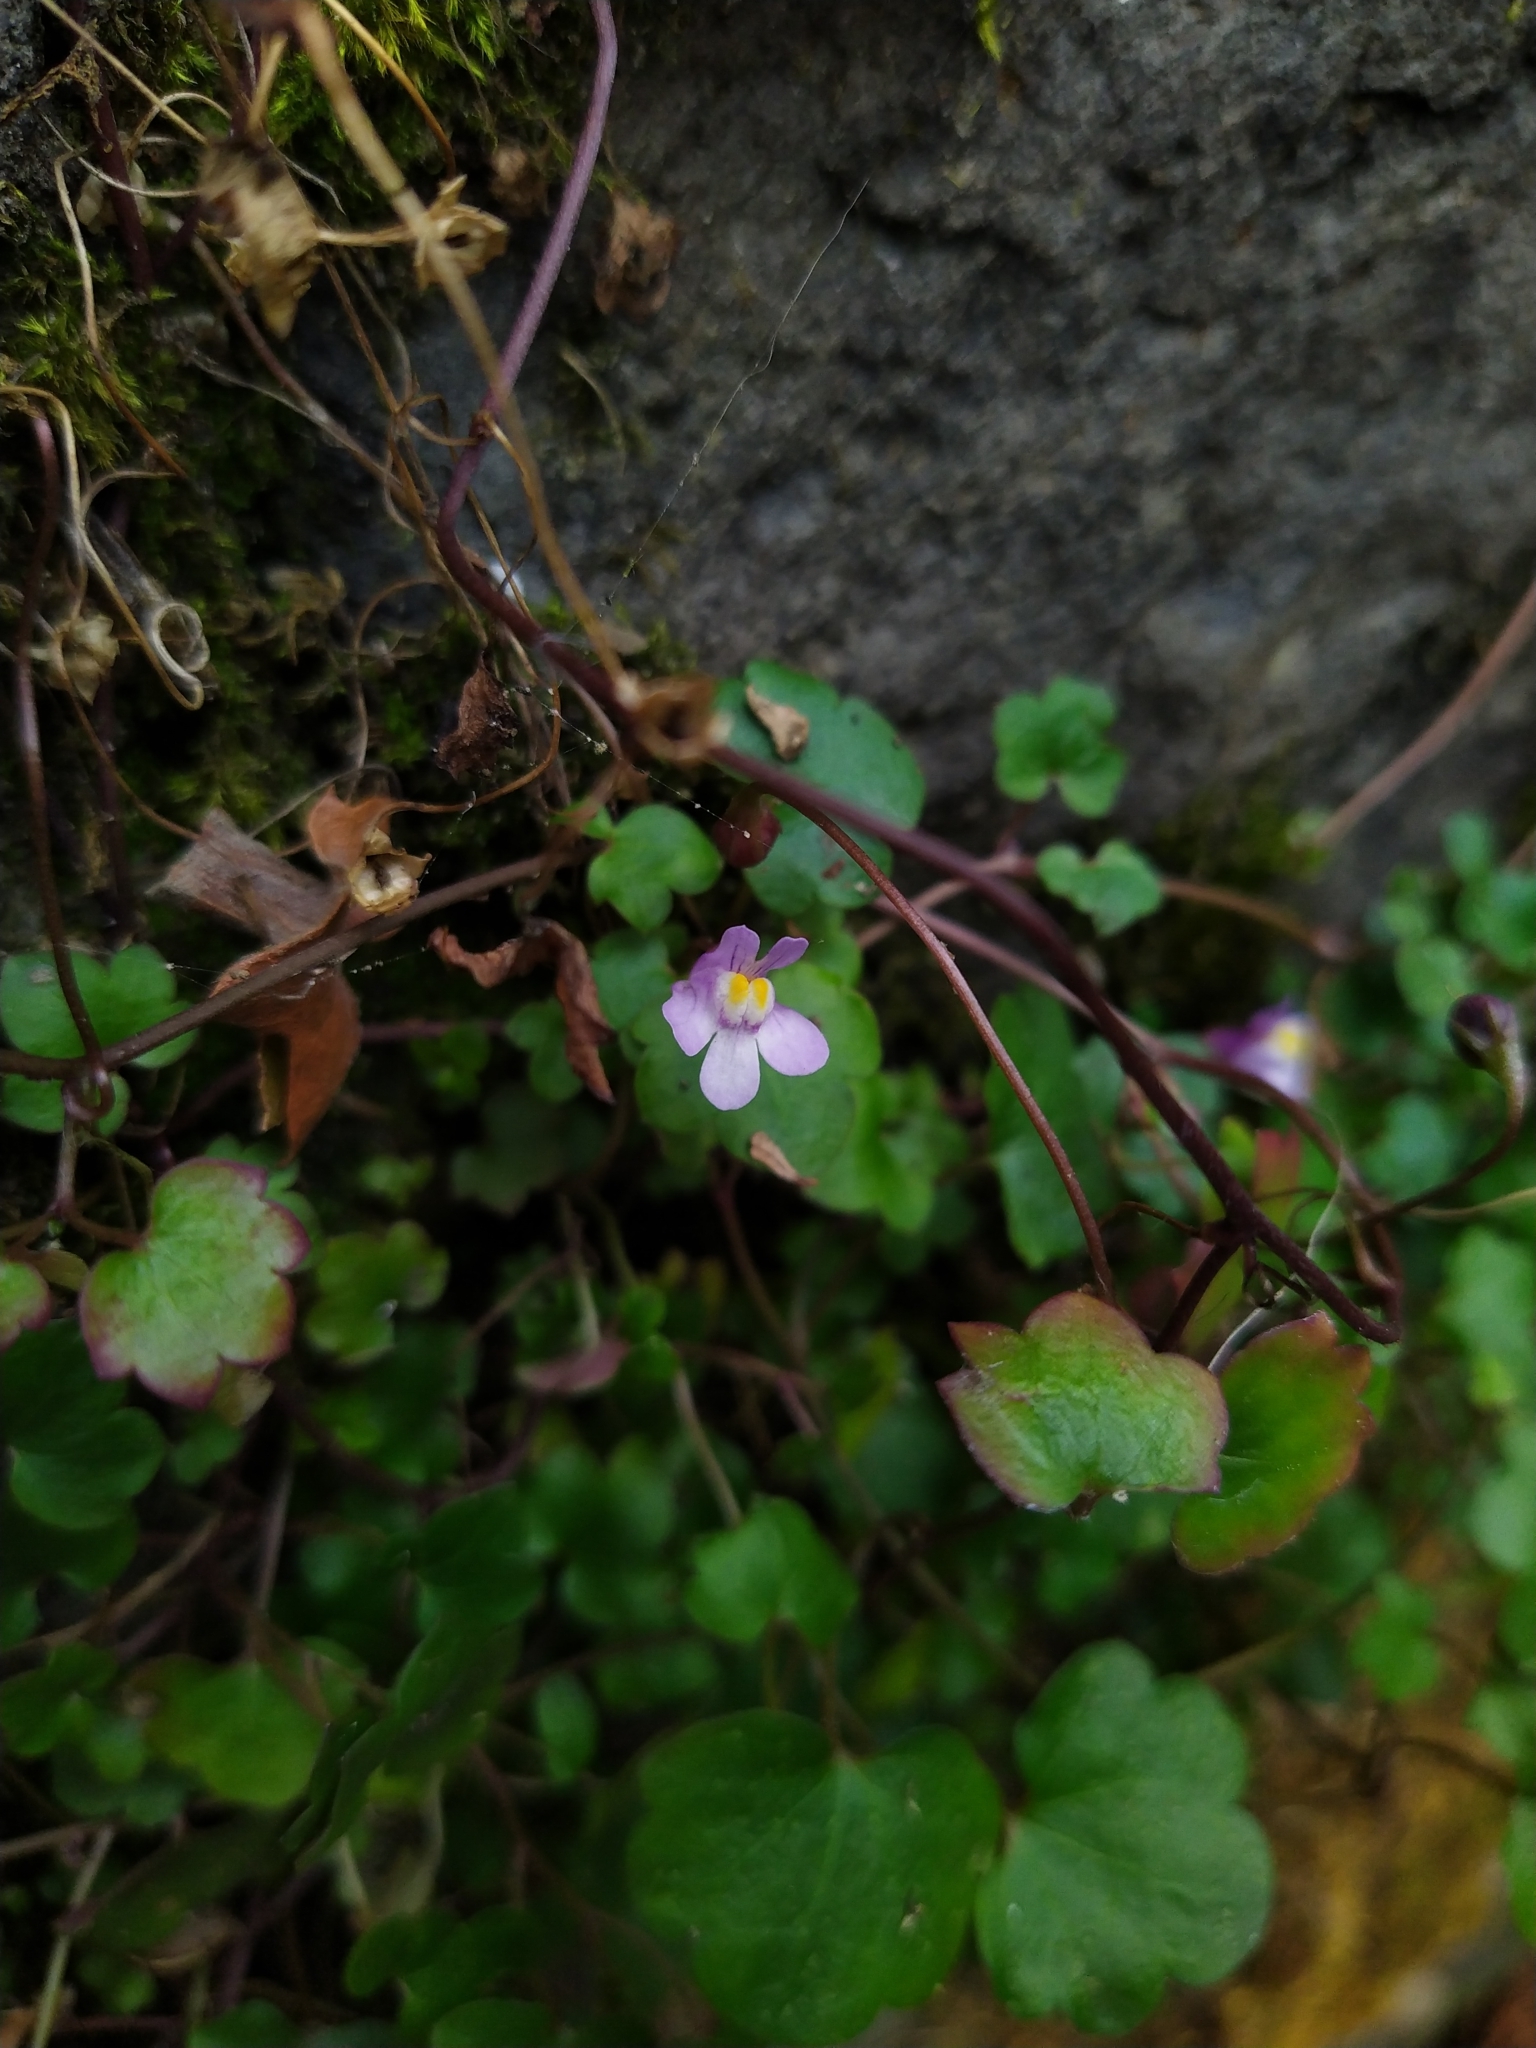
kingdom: Plantae
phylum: Tracheophyta
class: Magnoliopsida
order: Lamiales
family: Plantaginaceae
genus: Cymbalaria
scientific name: Cymbalaria muralis
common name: Ivy-leaved toadflax
